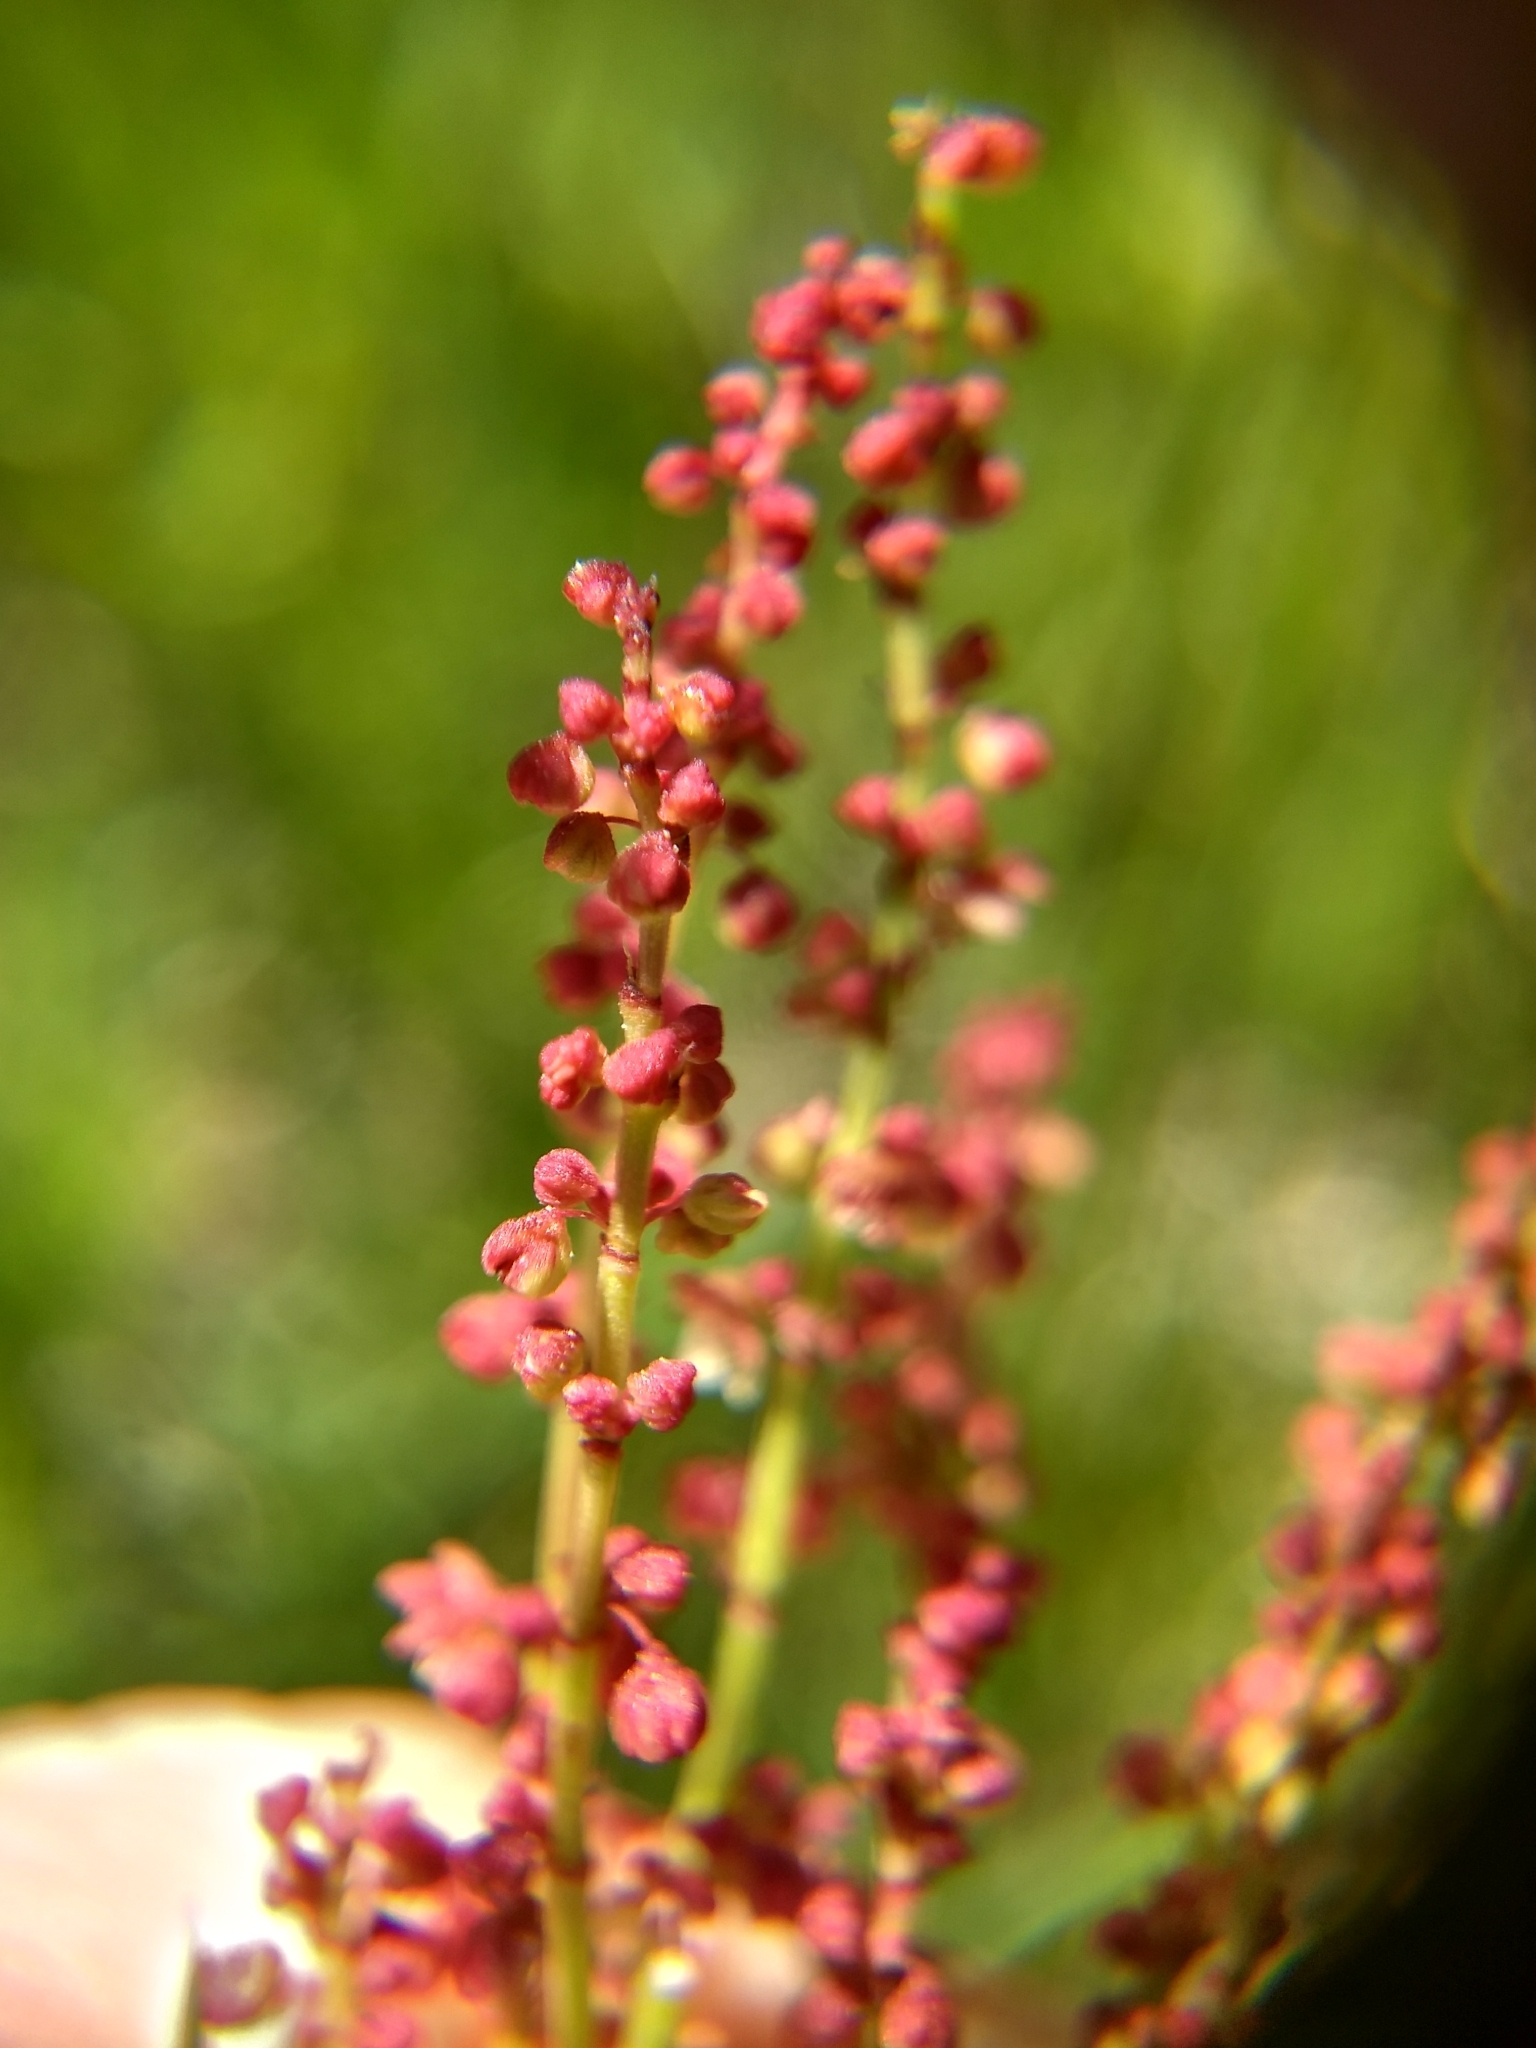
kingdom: Plantae
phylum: Tracheophyta
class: Magnoliopsida
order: Caryophyllales
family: Polygonaceae
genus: Rumex
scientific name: Rumex acetosella
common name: Common sheep sorrel
